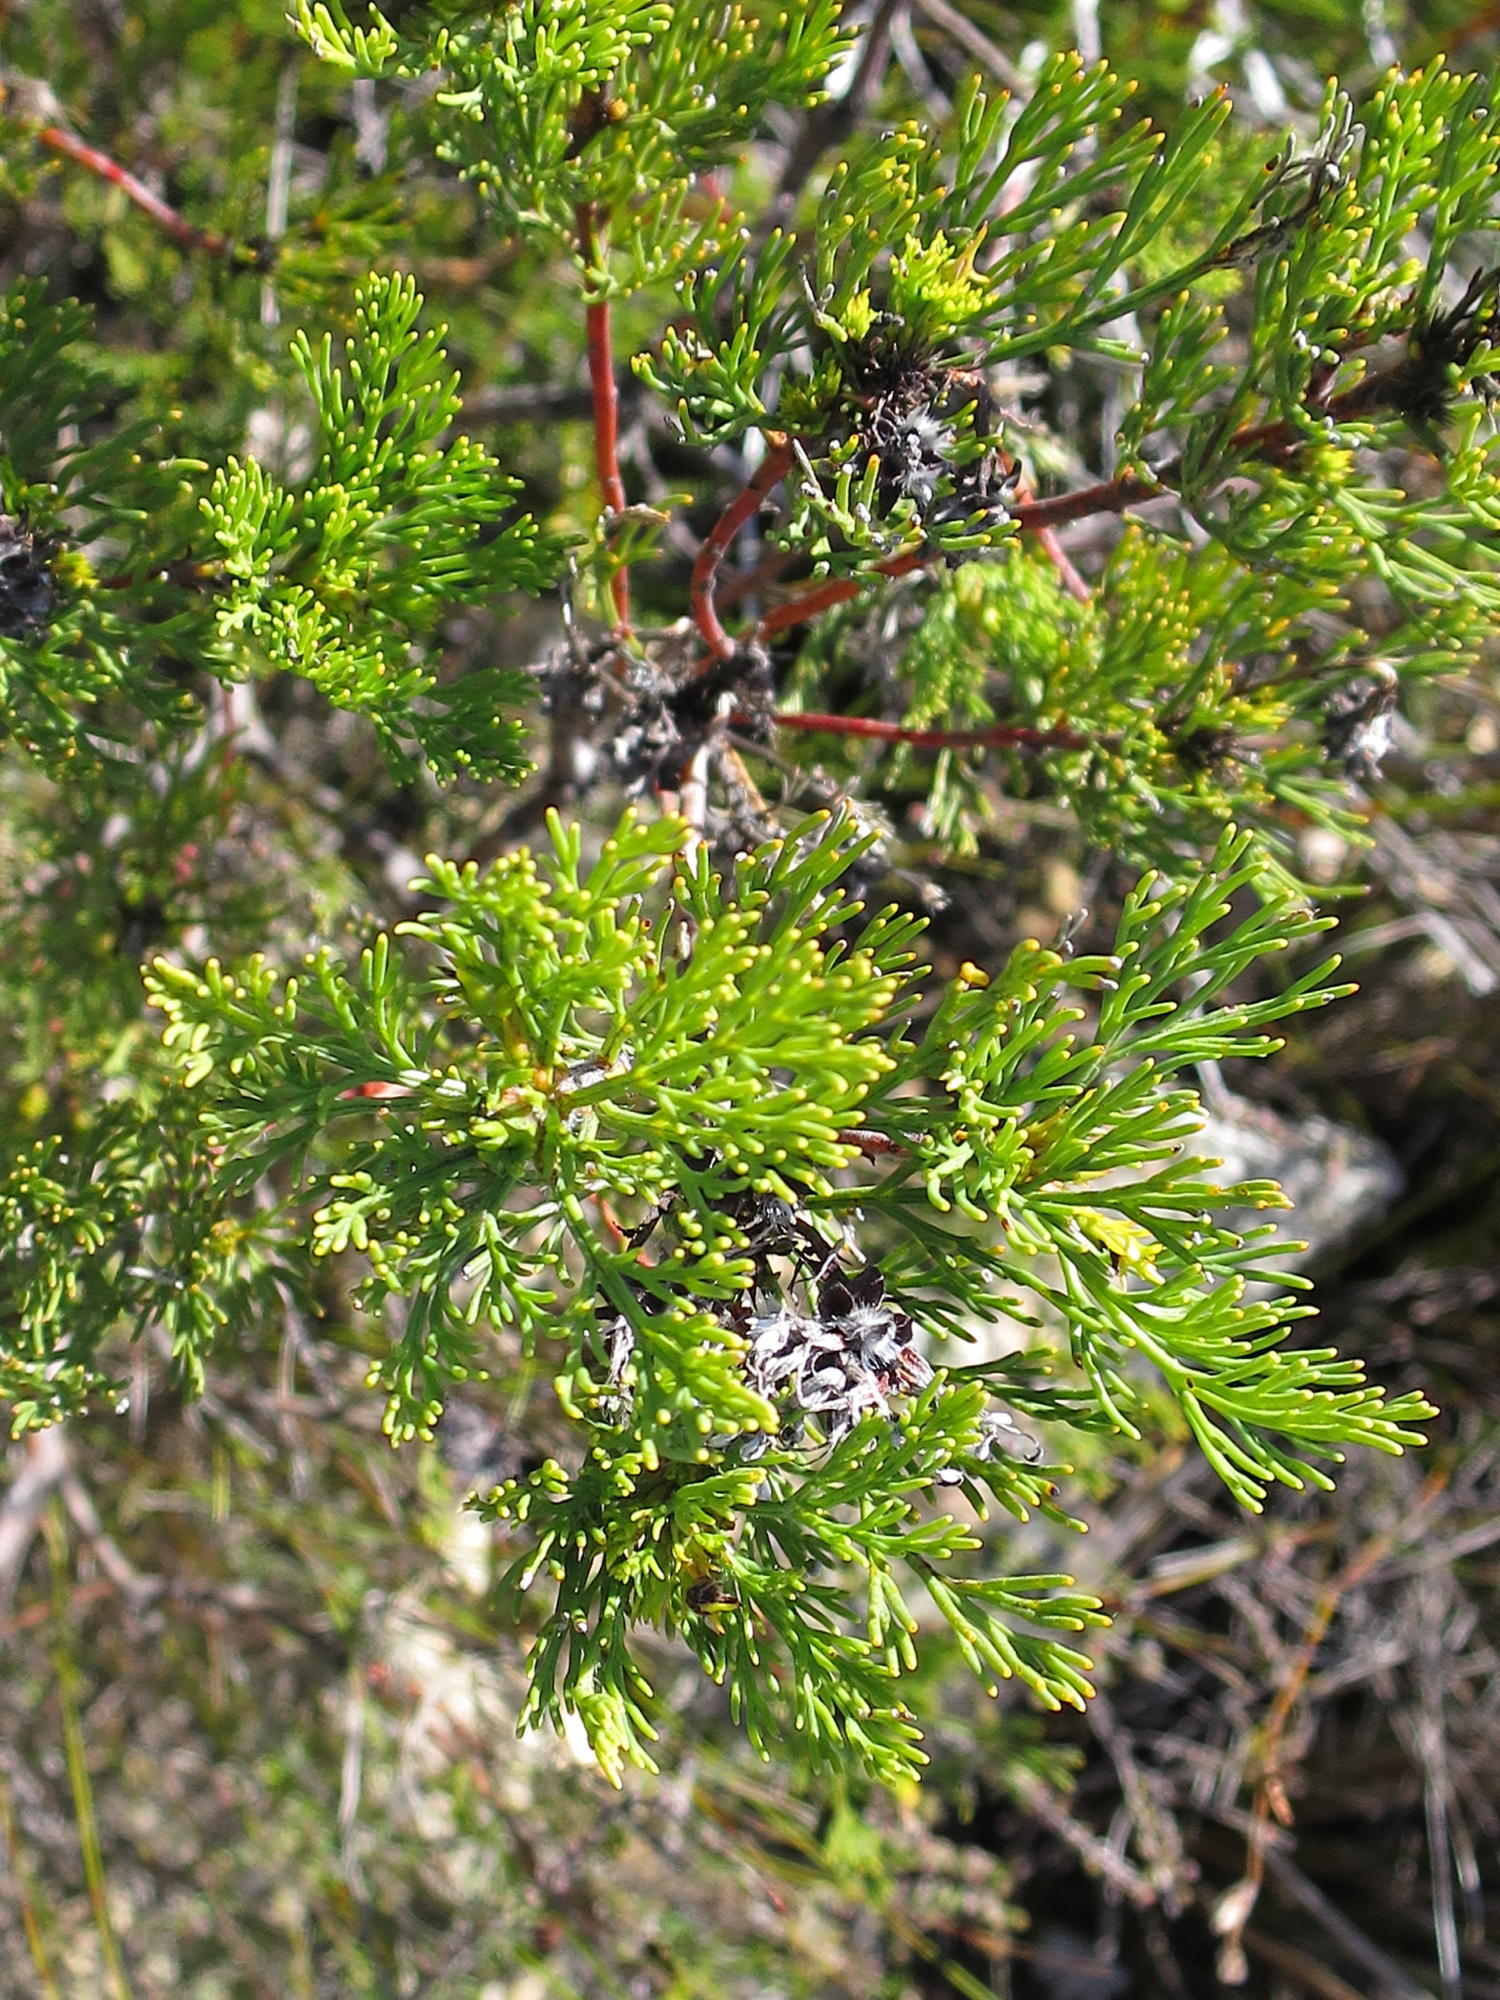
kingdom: Plantae
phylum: Tracheophyta
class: Magnoliopsida
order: Proteales
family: Proteaceae
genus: Serruria
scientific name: Serruria balanocephala
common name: Acorn spiderhead
